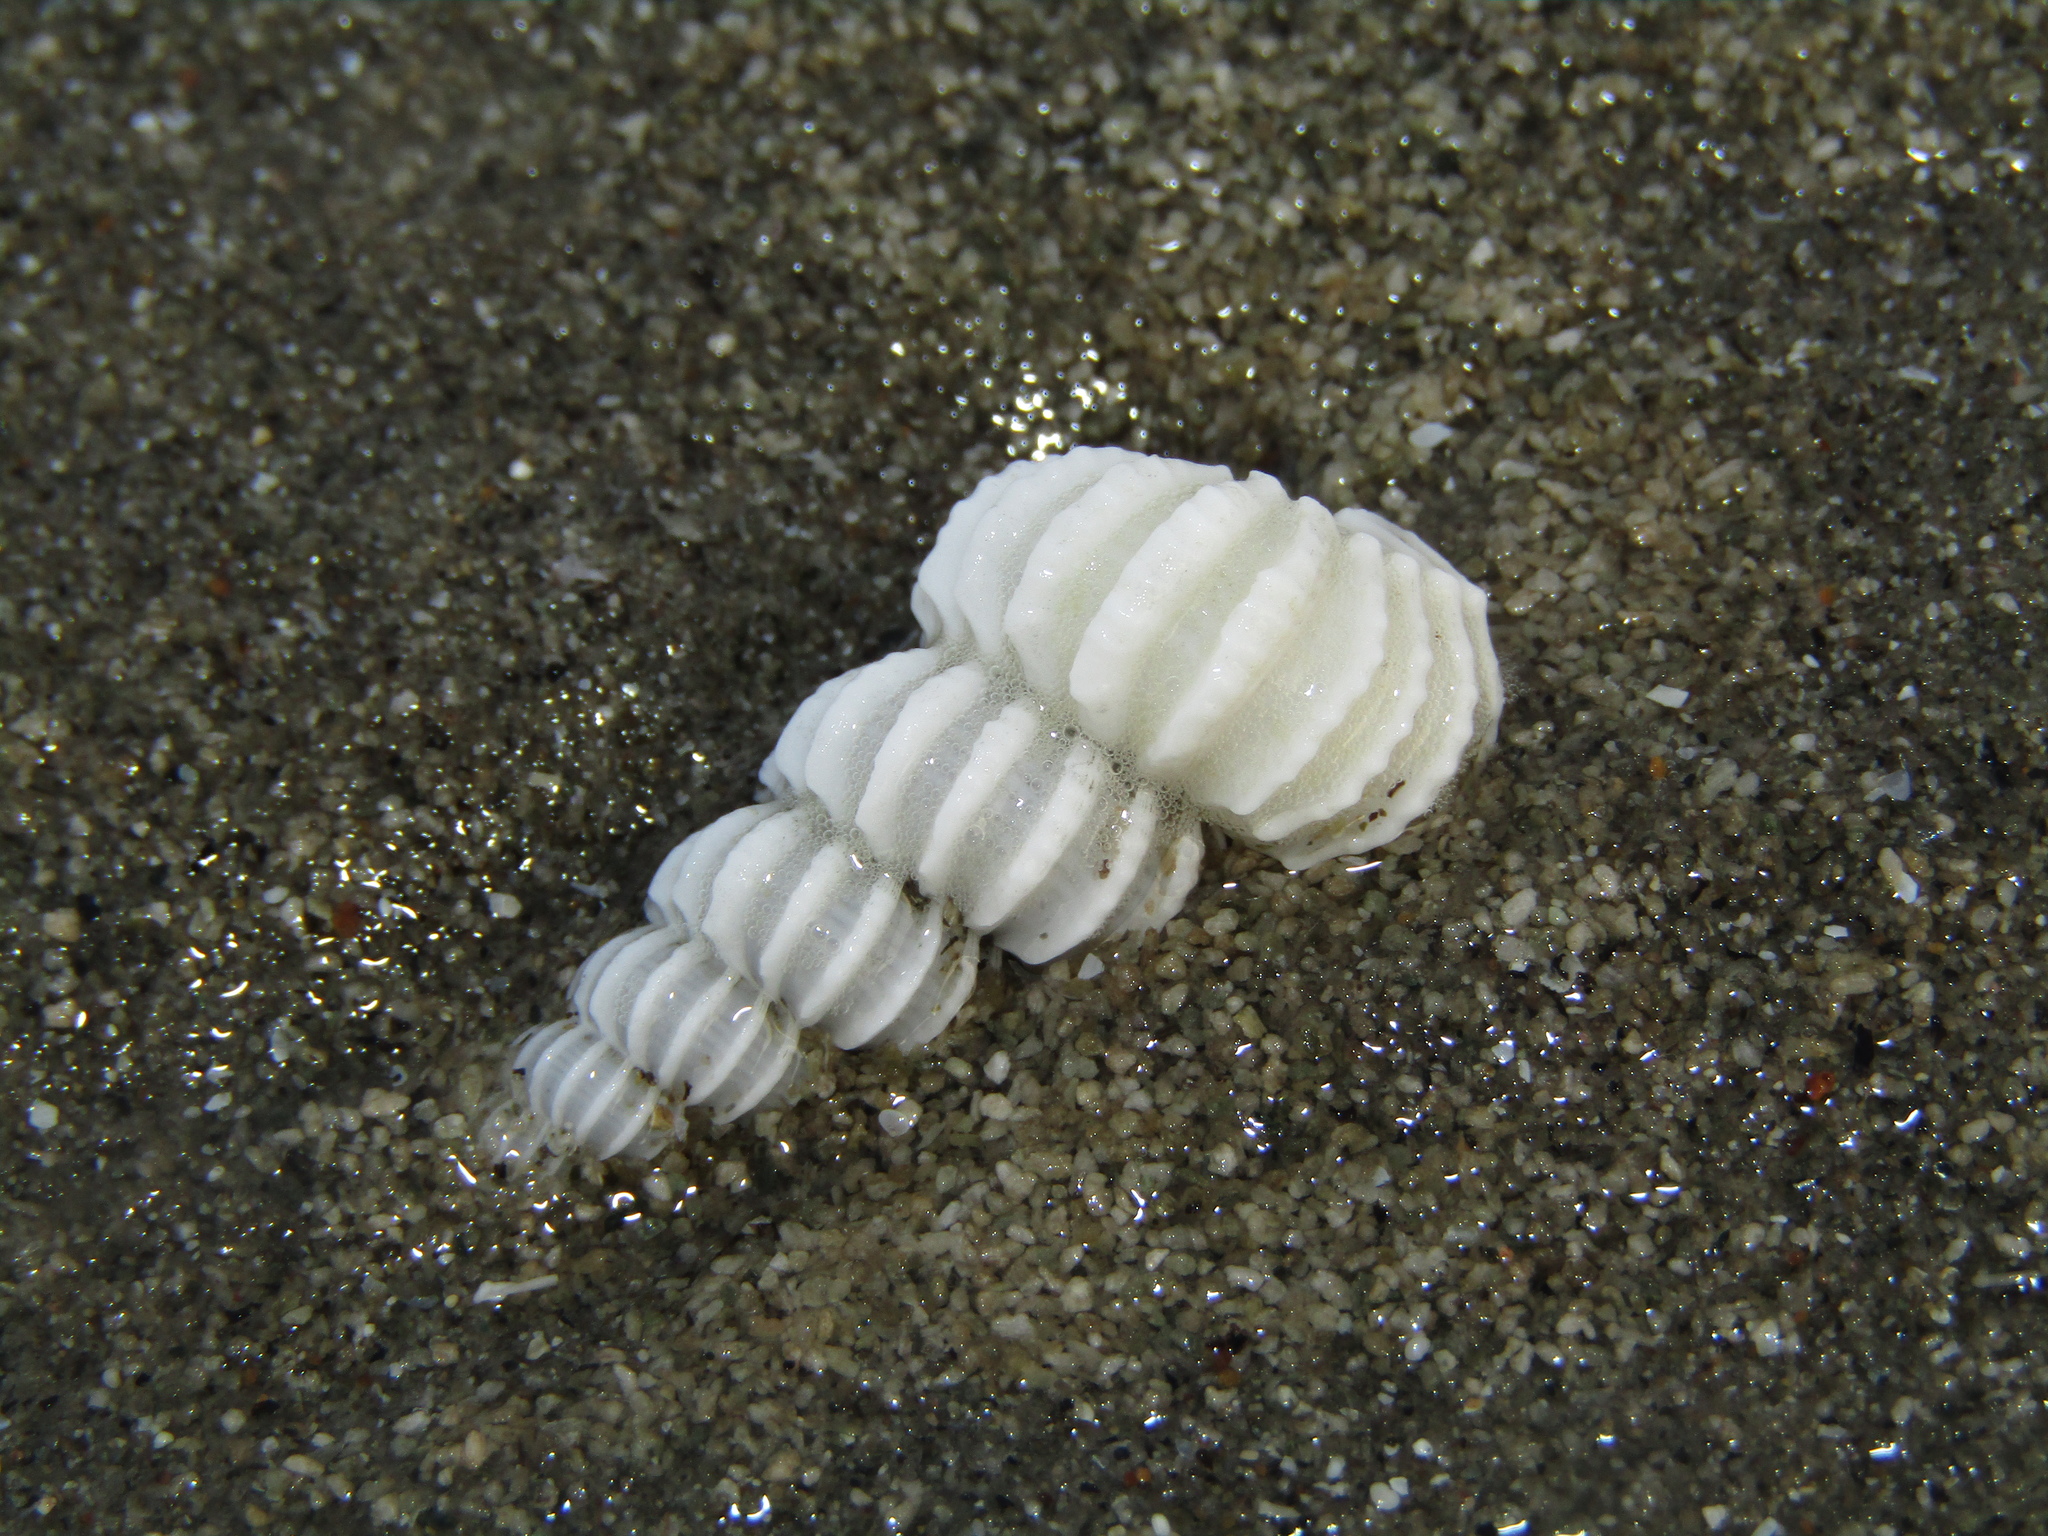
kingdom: Animalia
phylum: Mollusca
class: Gastropoda
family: Epitoniidae
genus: Cirsotrema
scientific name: Cirsotrema zelebori
